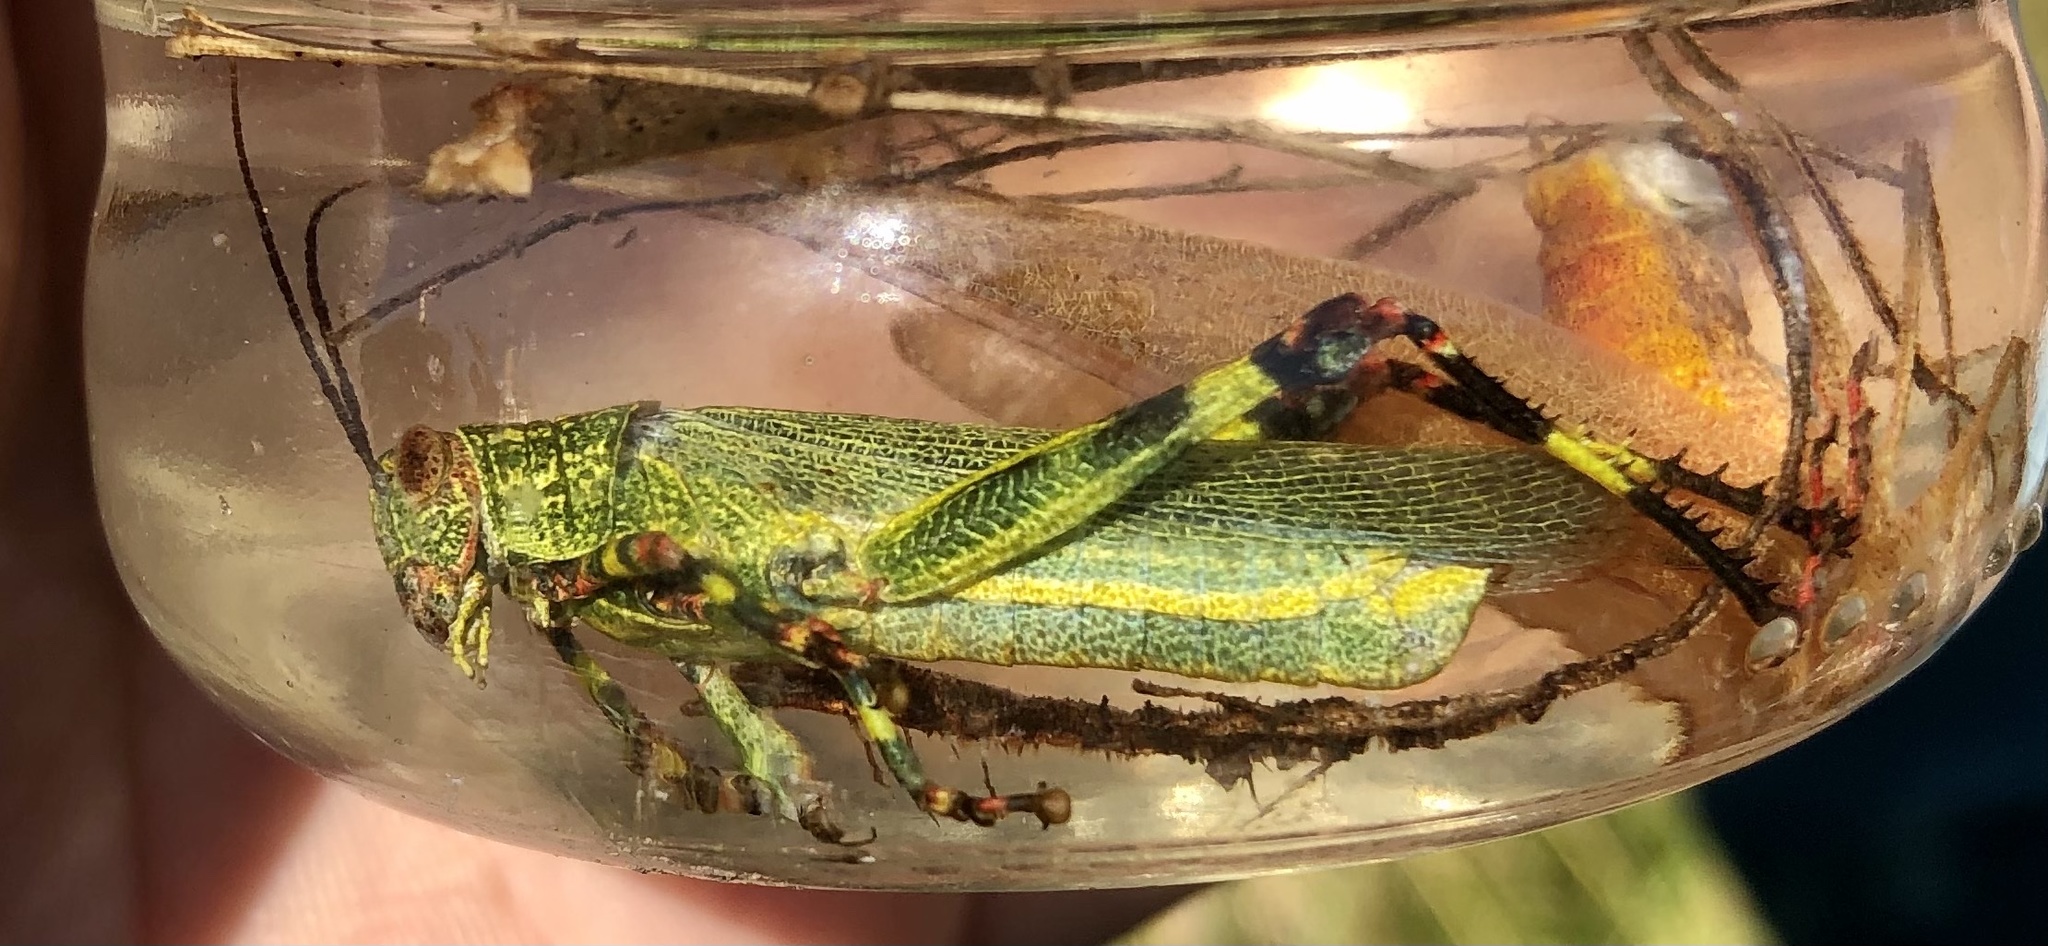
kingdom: Animalia
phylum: Arthropoda
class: Insecta
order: Orthoptera
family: Romaleidae
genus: Zoniopoda
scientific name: Zoniopoda tarsata
